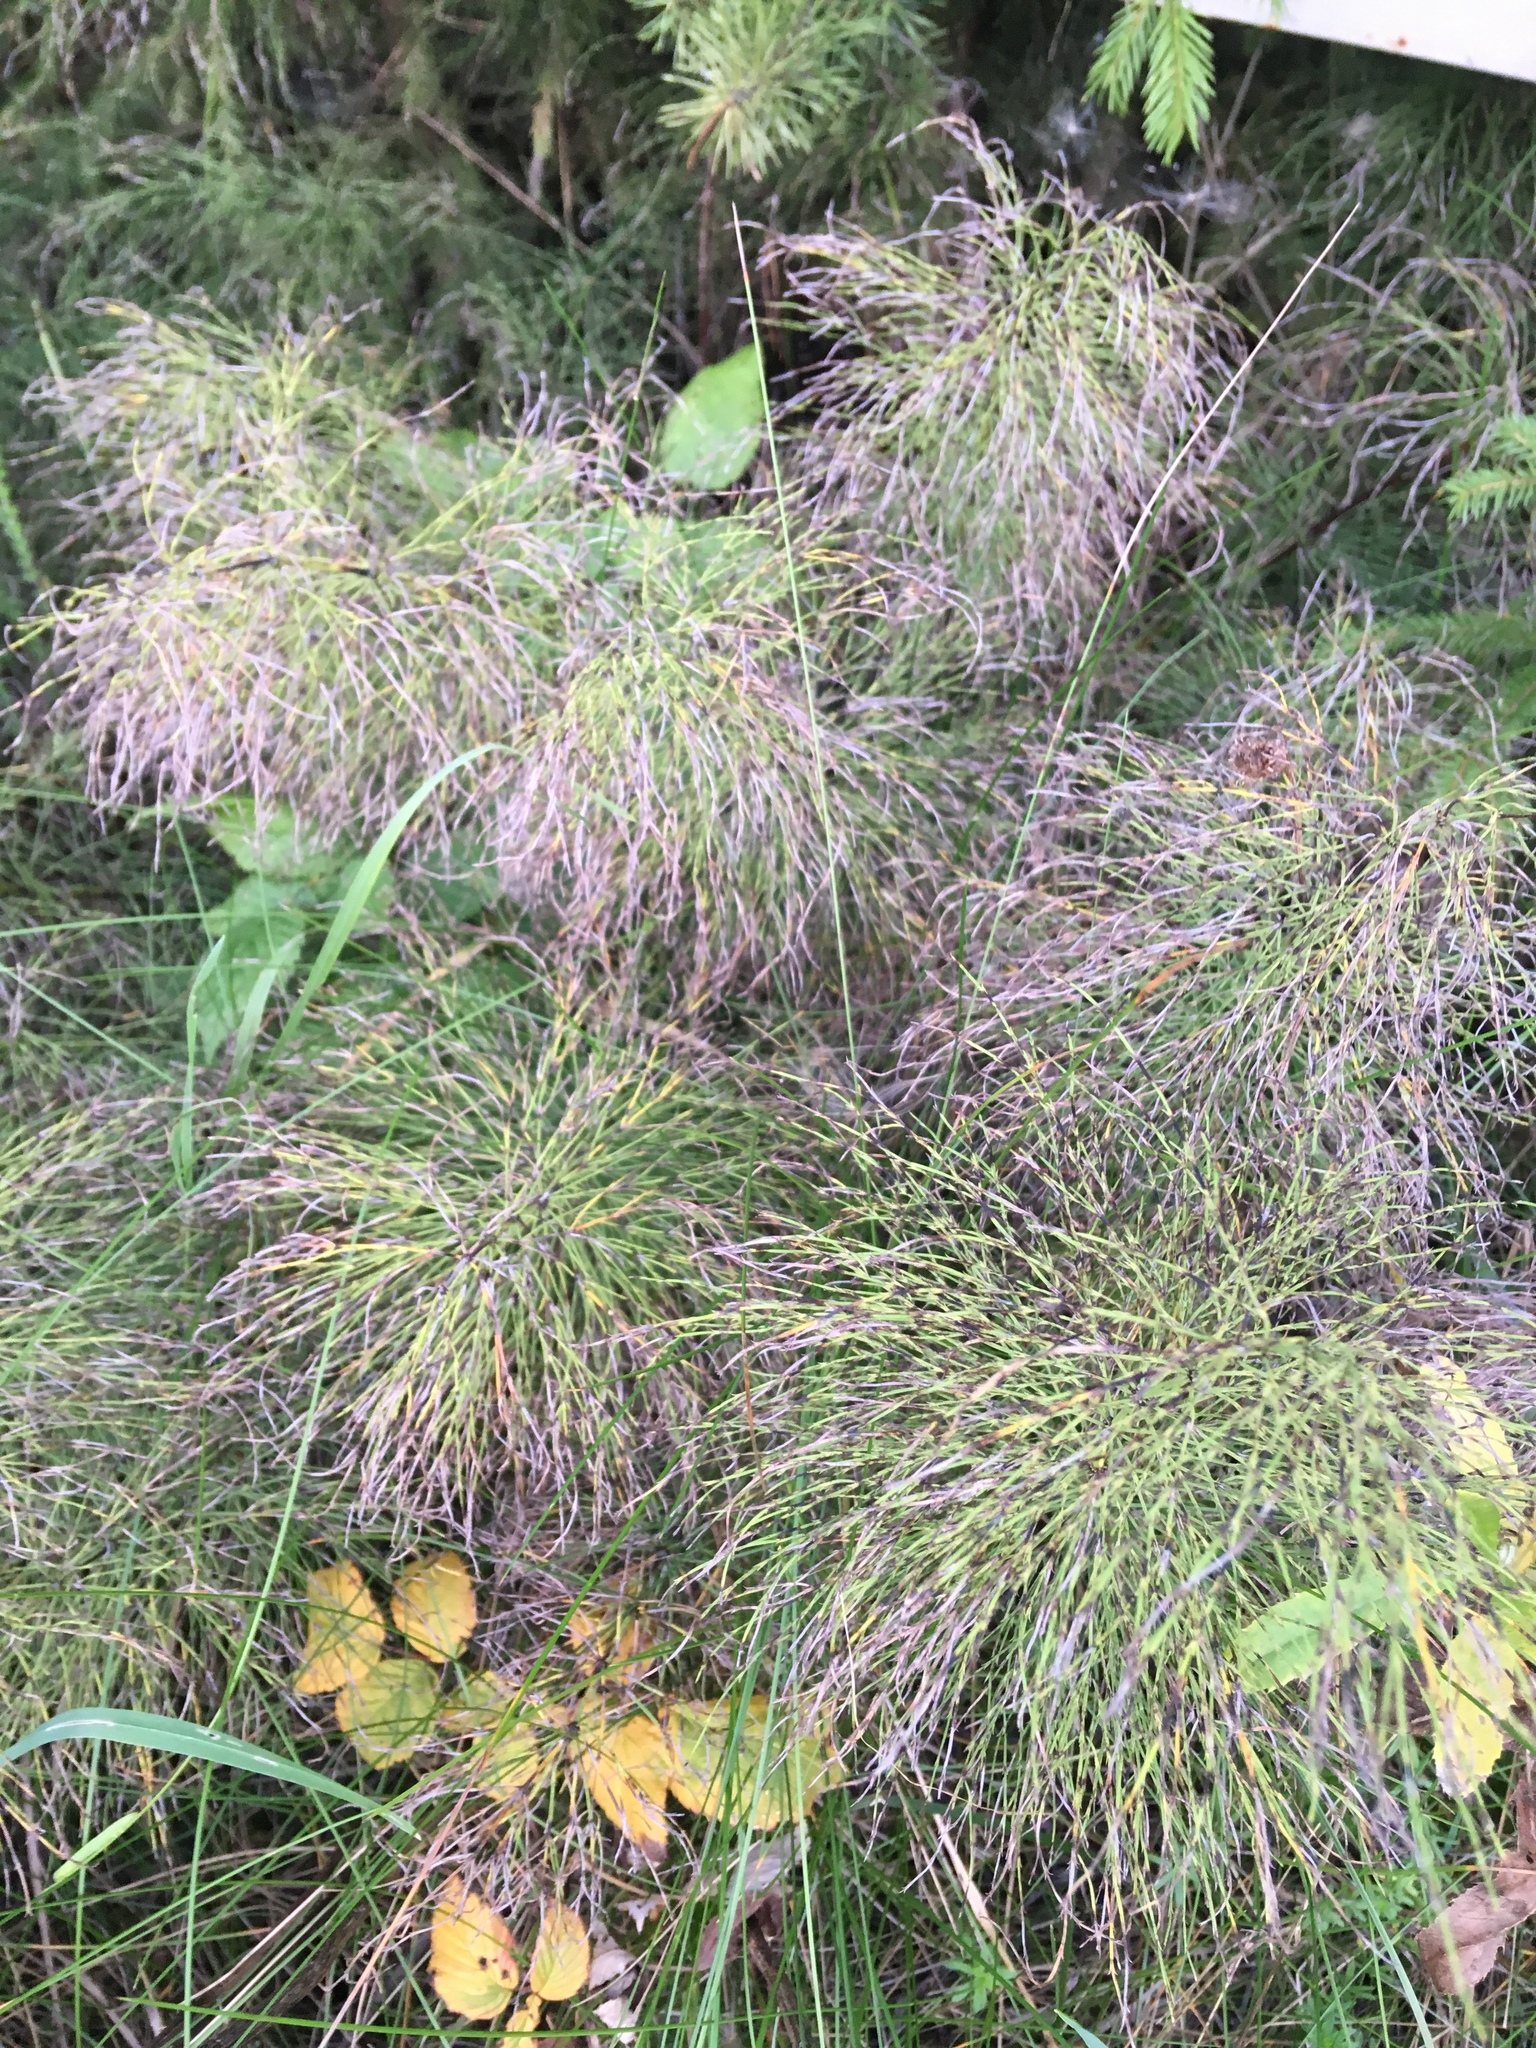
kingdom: Plantae
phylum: Tracheophyta
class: Polypodiopsida
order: Equisetales
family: Equisetaceae
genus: Equisetum
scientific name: Equisetum sylvaticum
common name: Wood horsetail
